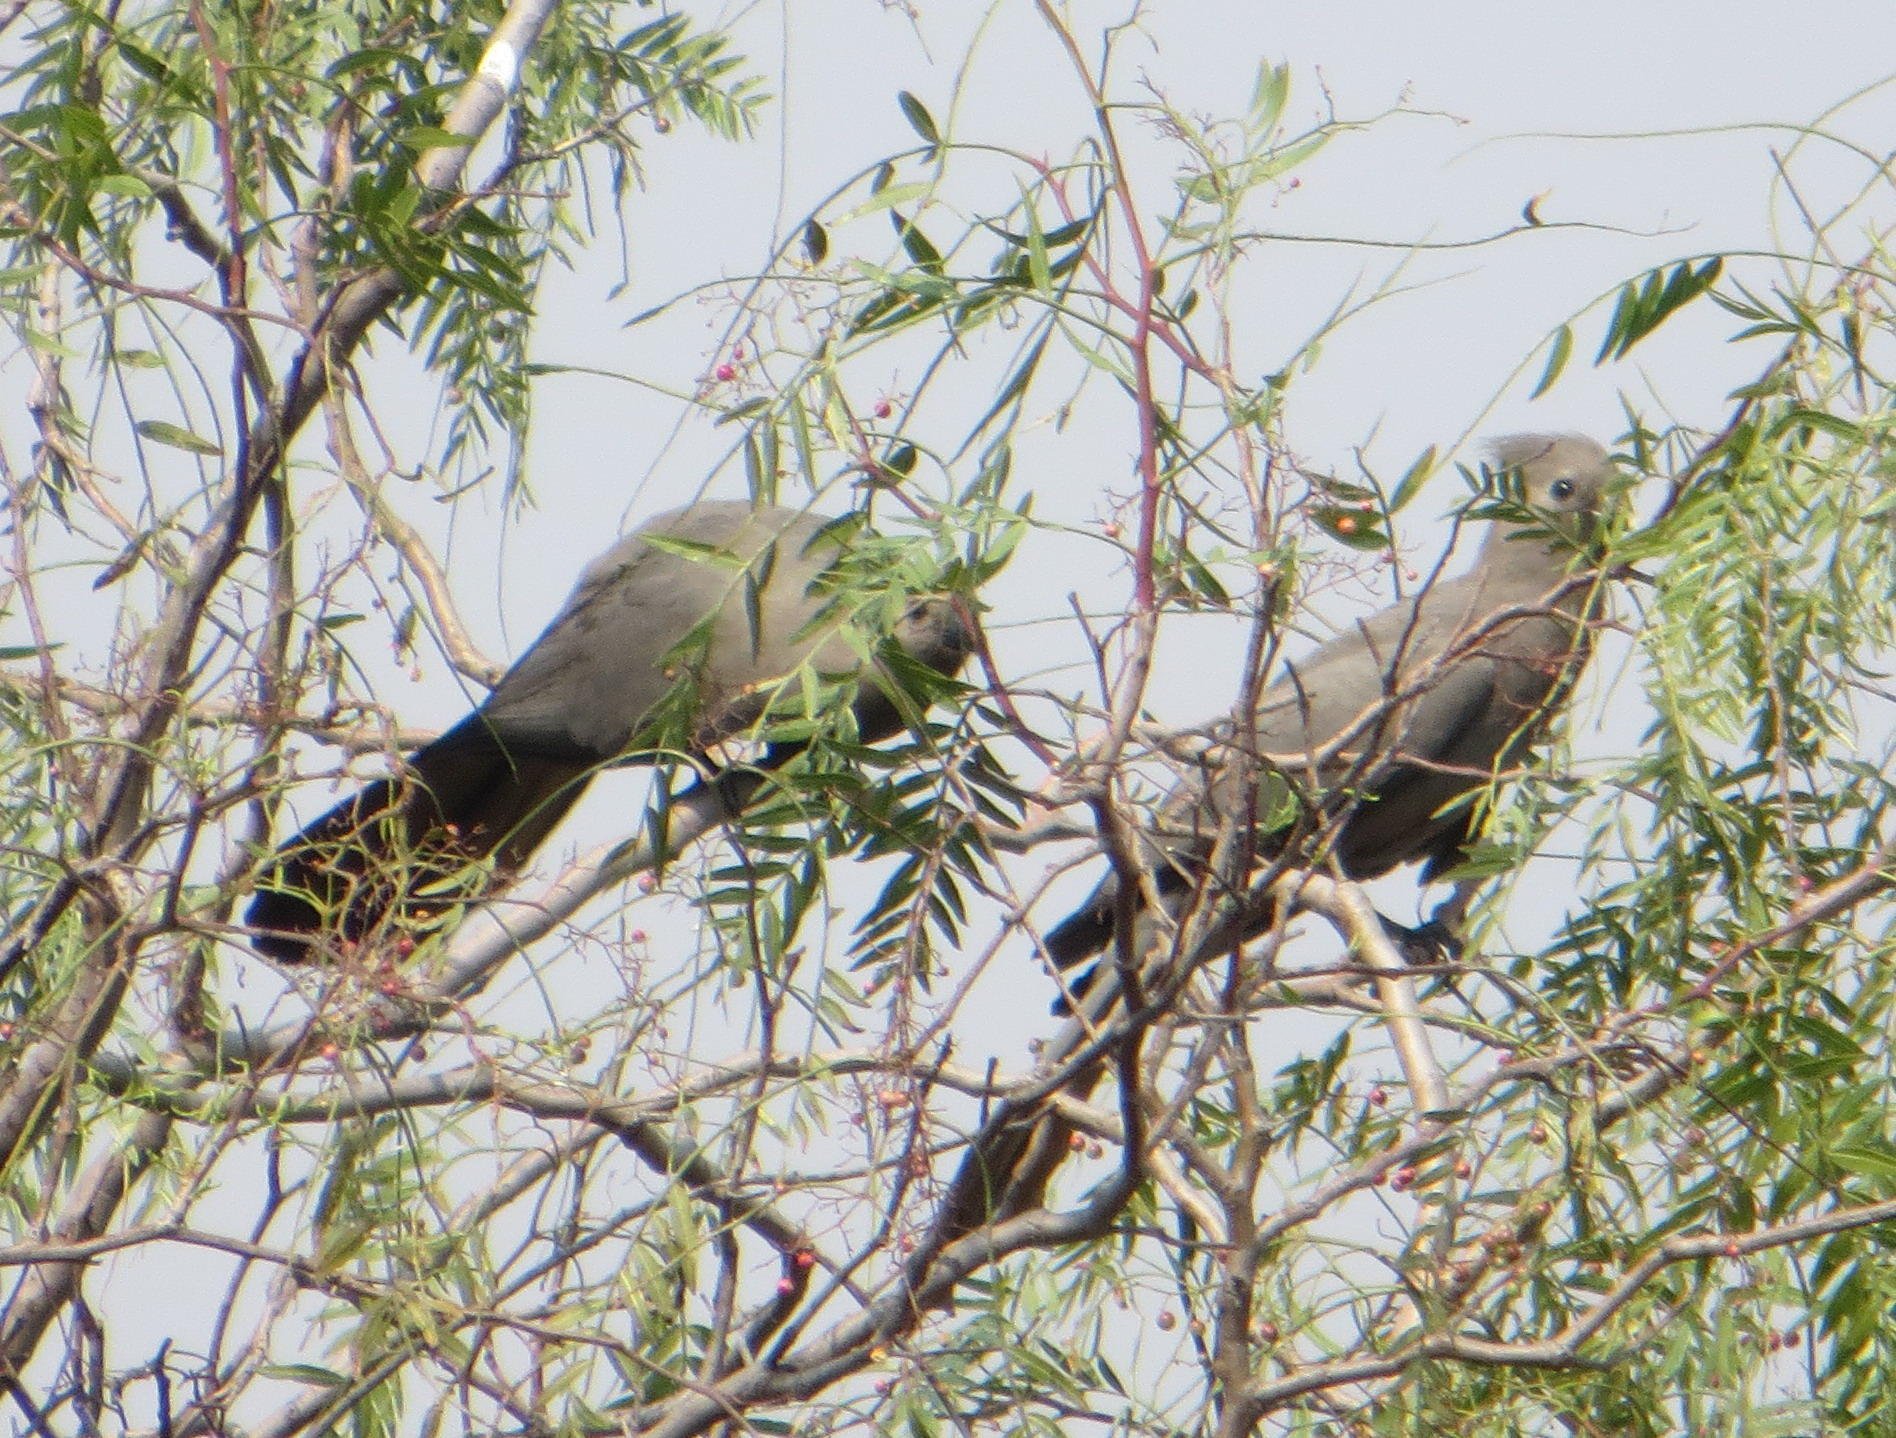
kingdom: Animalia
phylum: Chordata
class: Aves
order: Musophagiformes
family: Musophagidae
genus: Corythaixoides
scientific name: Corythaixoides concolor
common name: Grey go-away-bird
